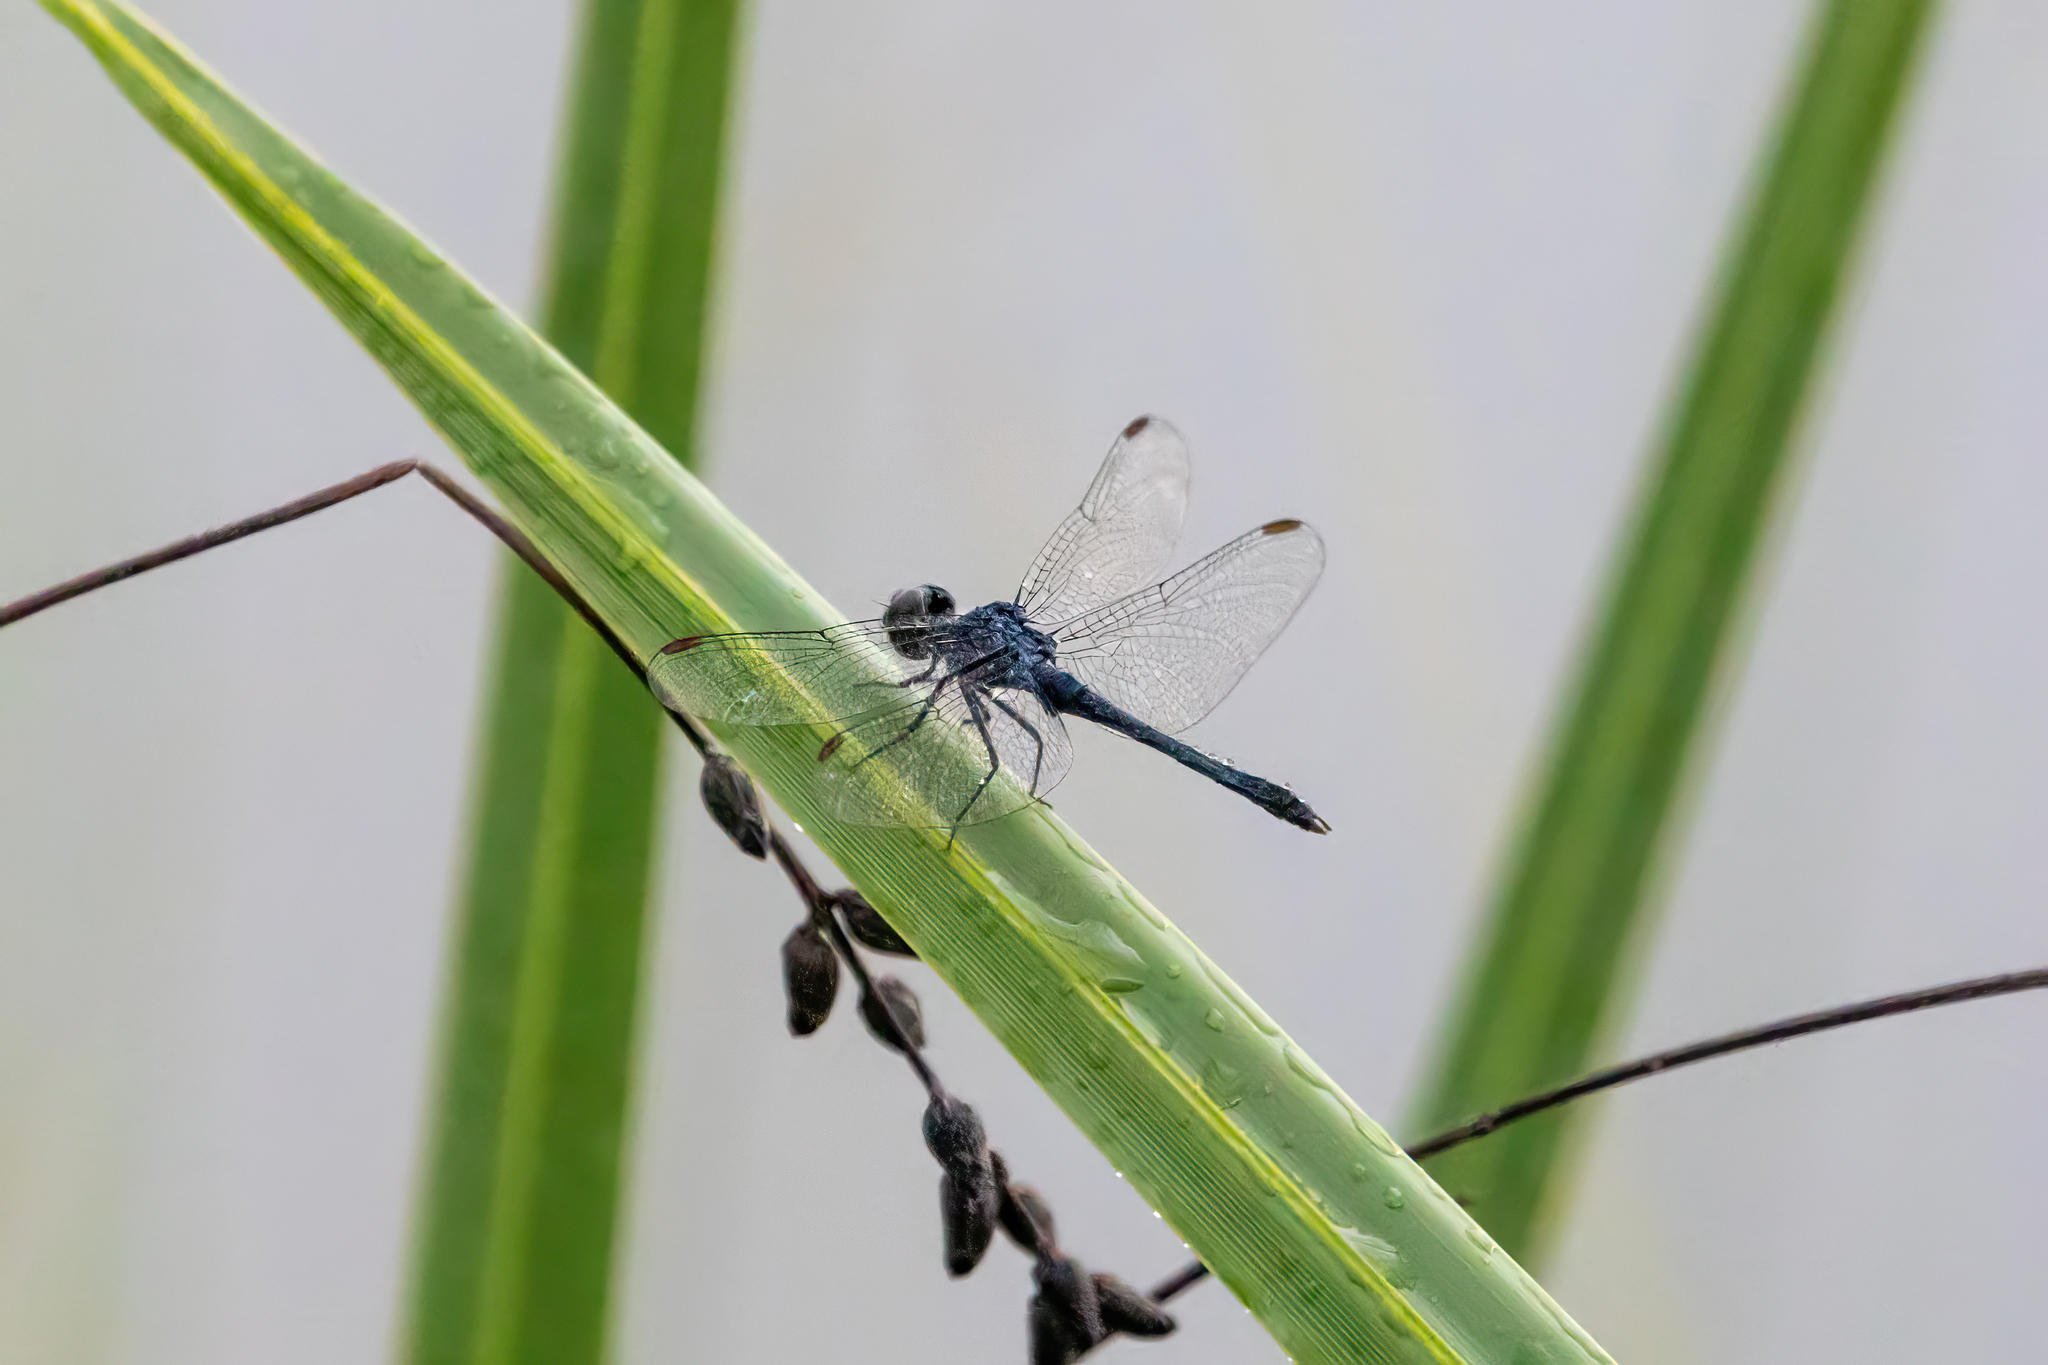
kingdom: Animalia
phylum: Arthropoda
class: Insecta
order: Odonata
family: Libellulidae
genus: Erythrodiplax
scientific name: Erythrodiplax berenice
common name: Seaside dragonlet
